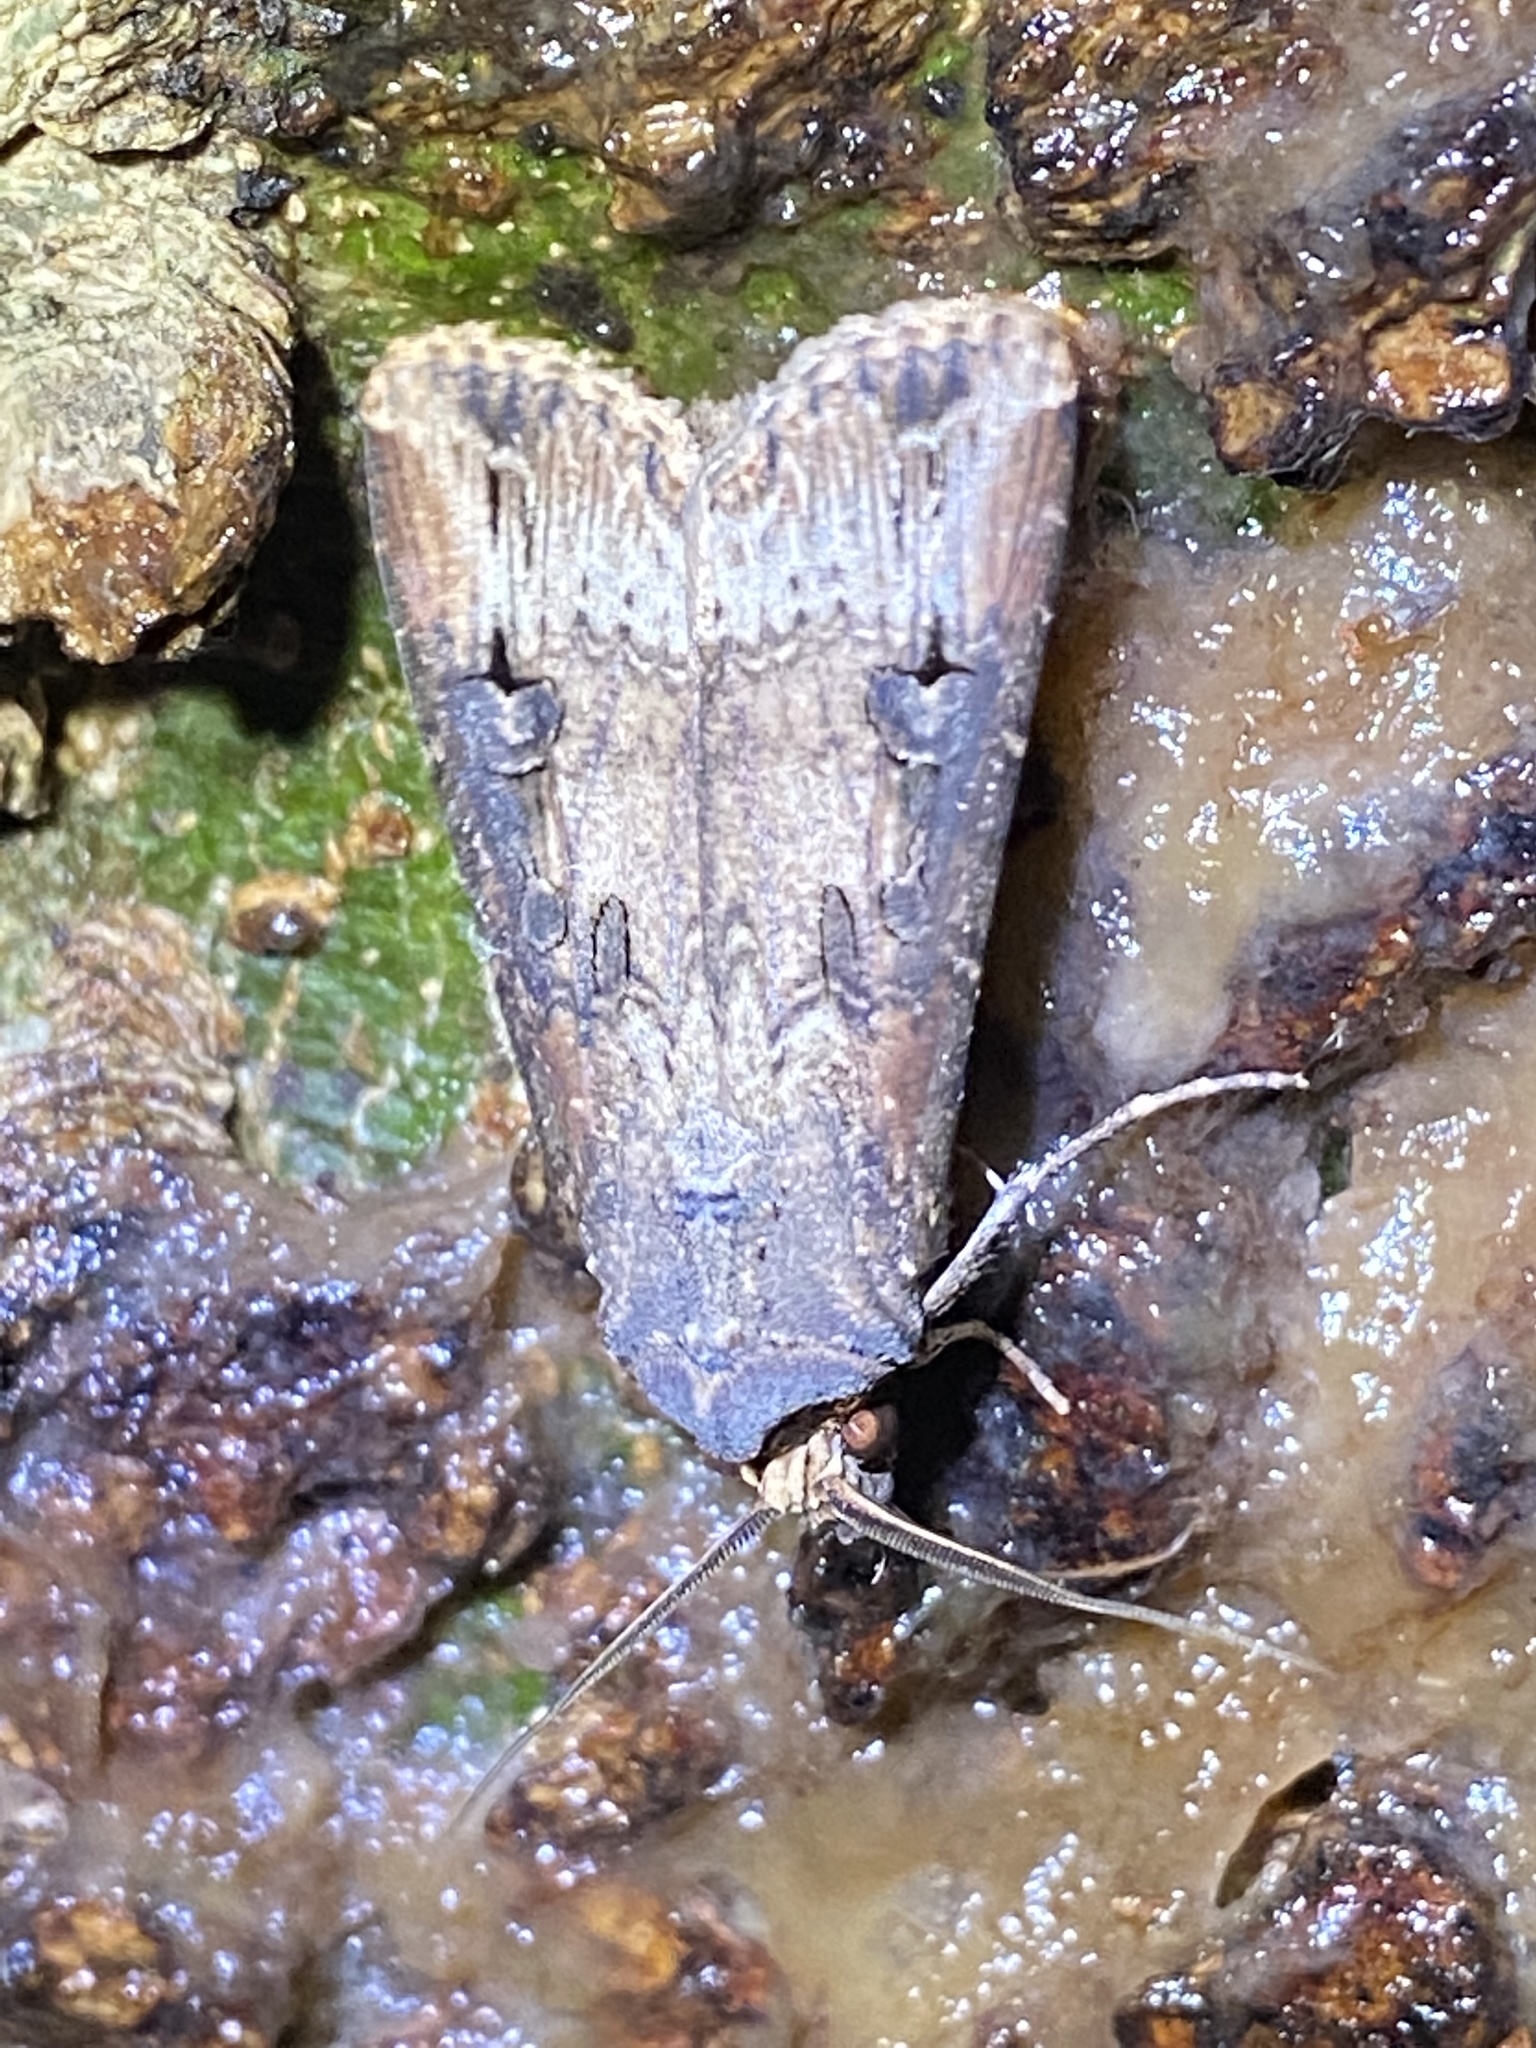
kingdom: Animalia
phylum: Arthropoda
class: Insecta
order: Lepidoptera
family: Noctuidae
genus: Agrotis
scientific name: Agrotis ipsilon
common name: Dark sword-grass
